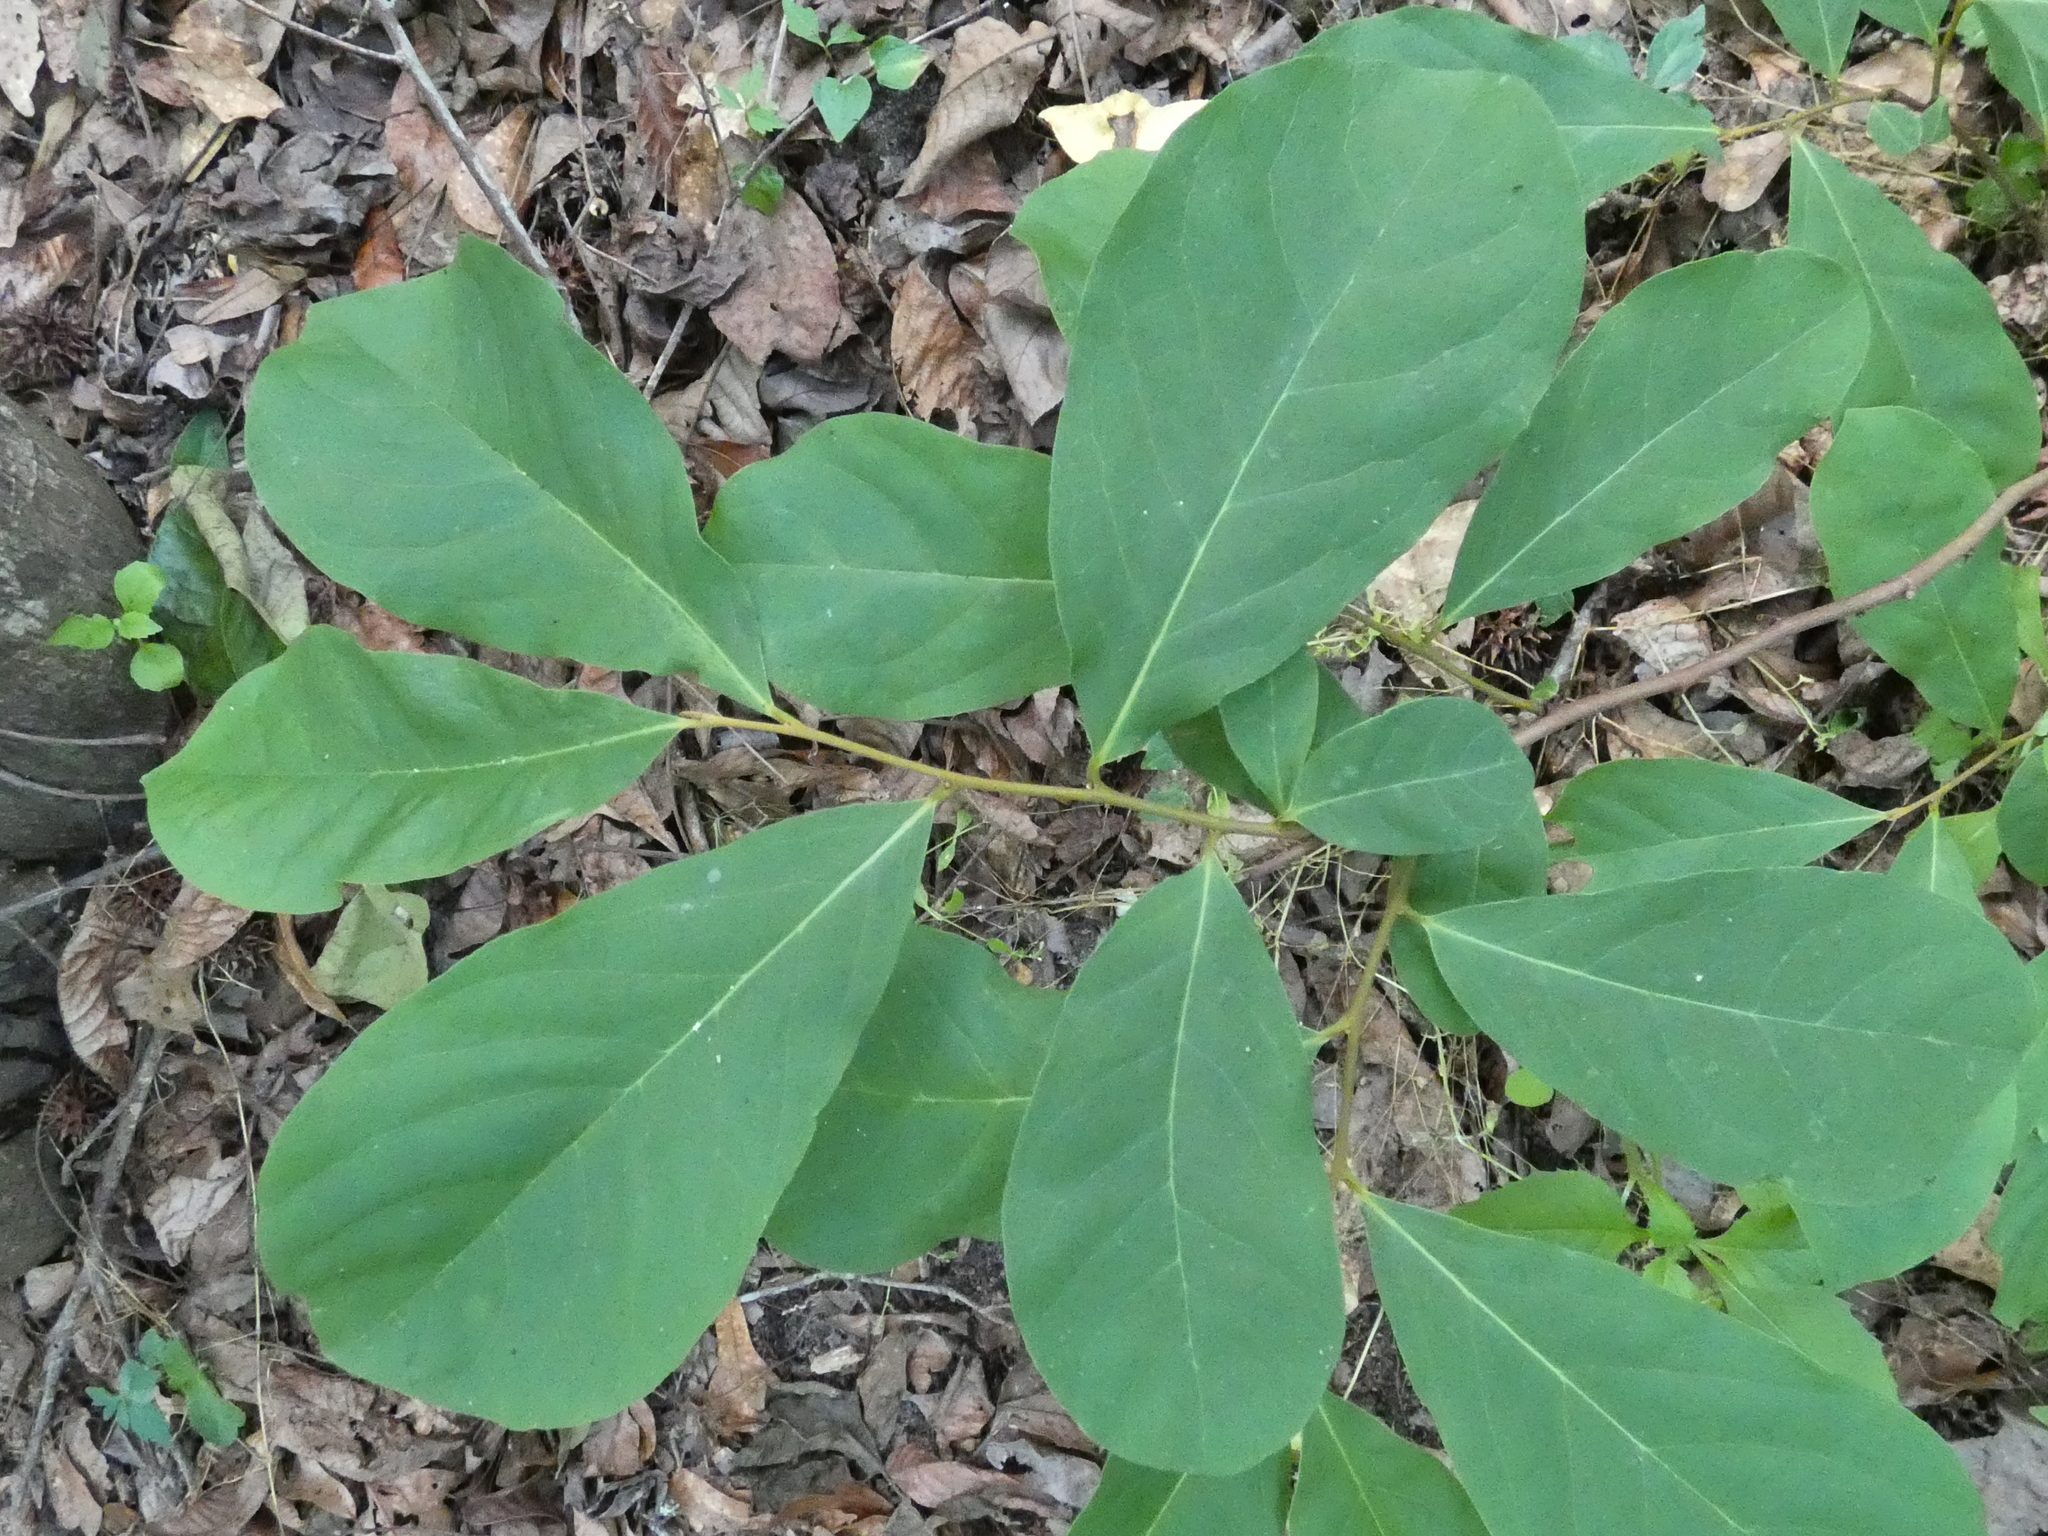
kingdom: Plantae
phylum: Tracheophyta
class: Magnoliopsida
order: Magnoliales
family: Annonaceae
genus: Asimina
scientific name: Asimina parviflora
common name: Dwarf pawpaw
